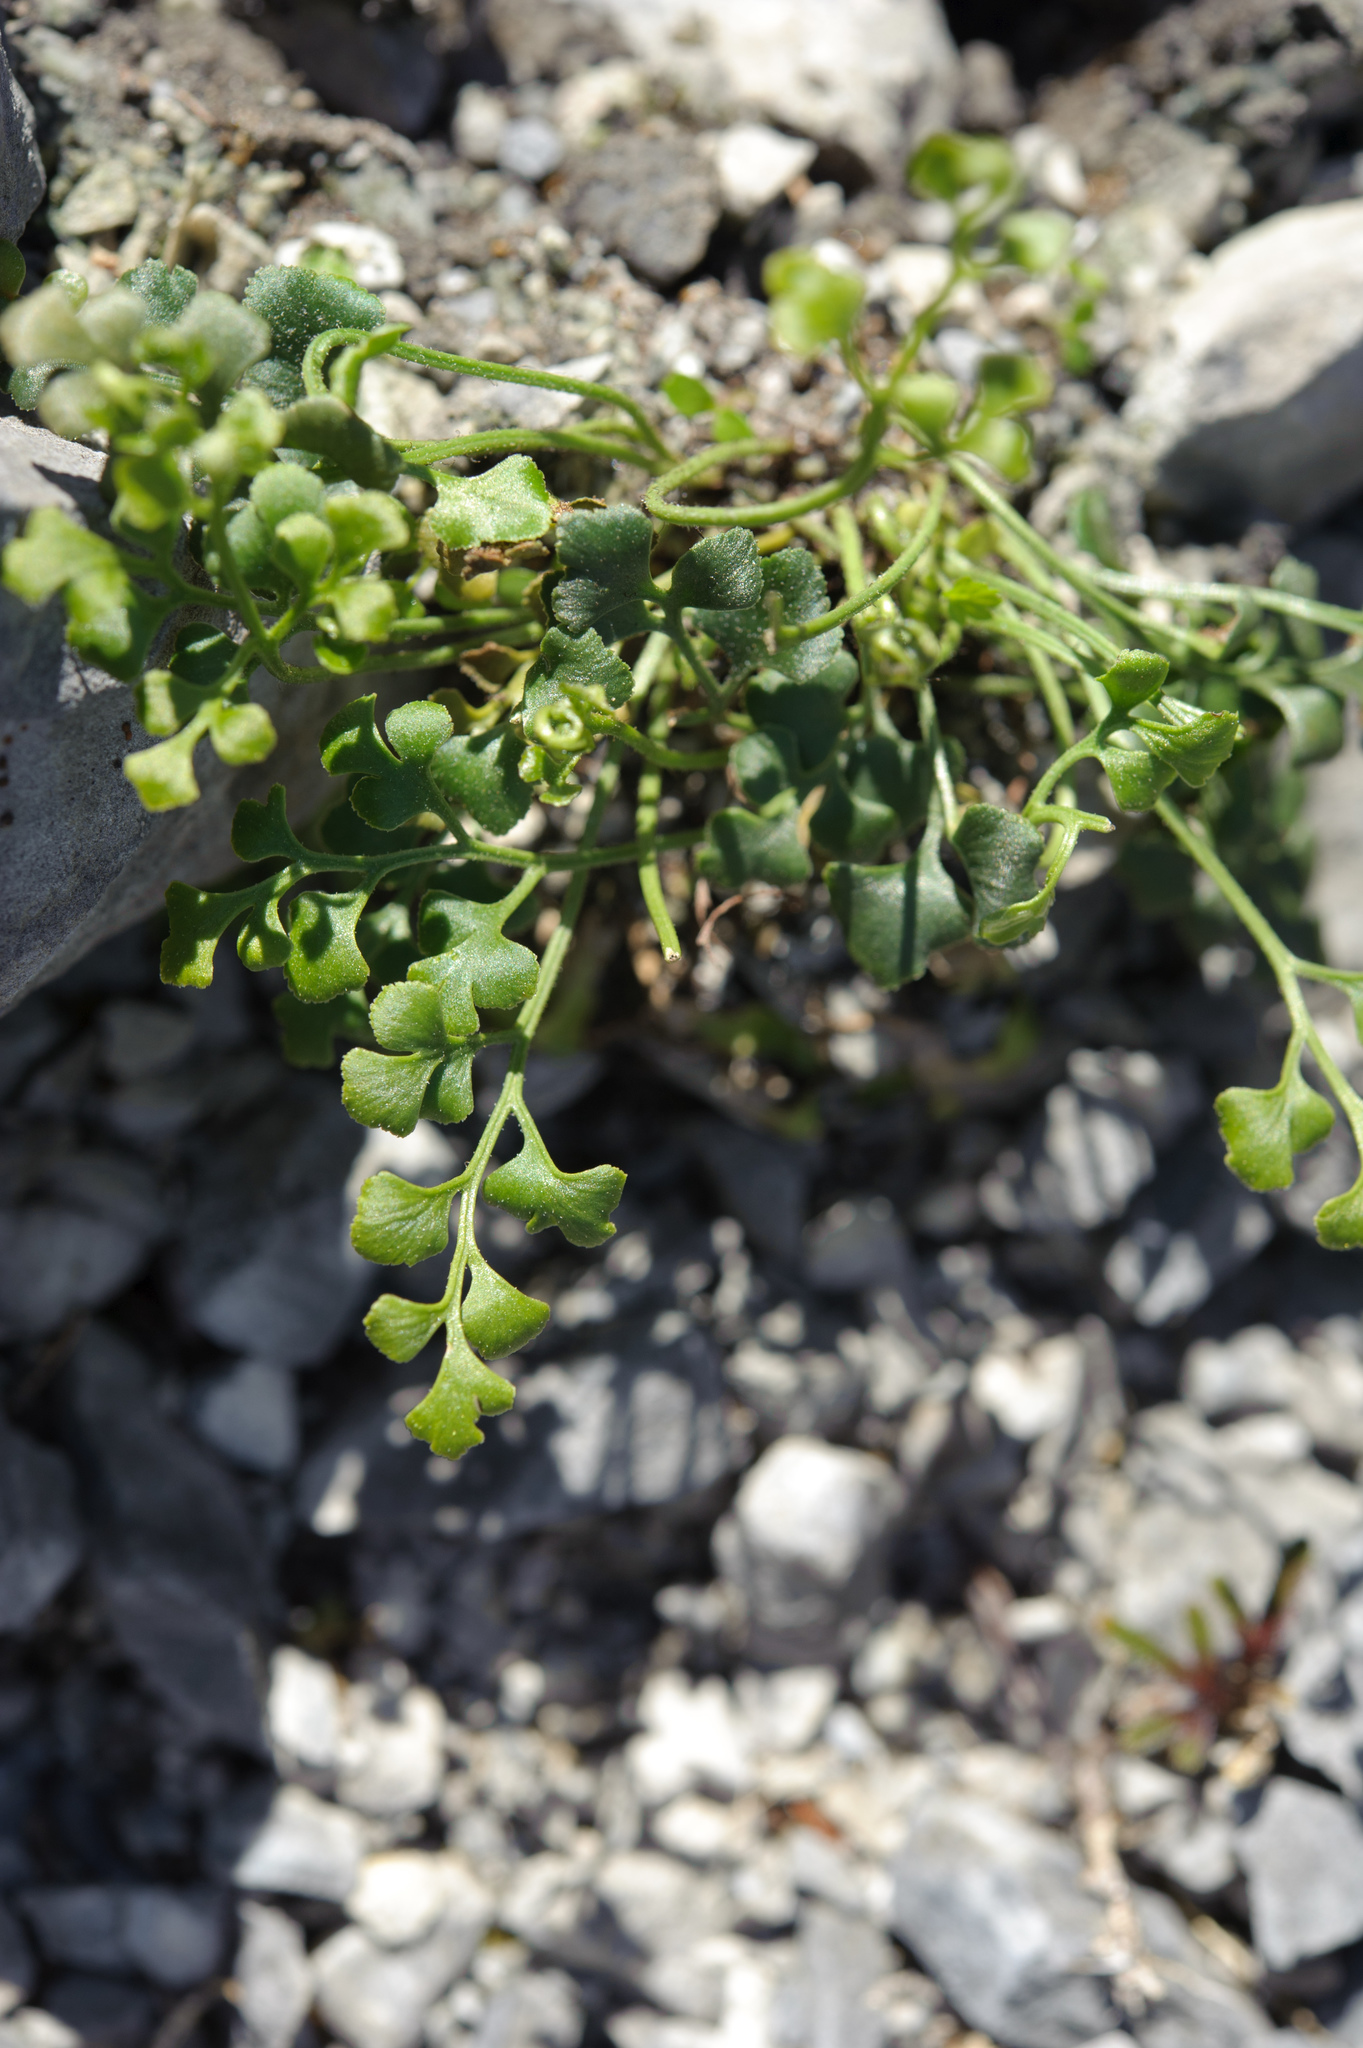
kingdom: Plantae
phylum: Tracheophyta
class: Polypodiopsida
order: Polypodiales
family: Aspleniaceae
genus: Asplenium
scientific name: Asplenium ruta-muraria
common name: Wall-rue
